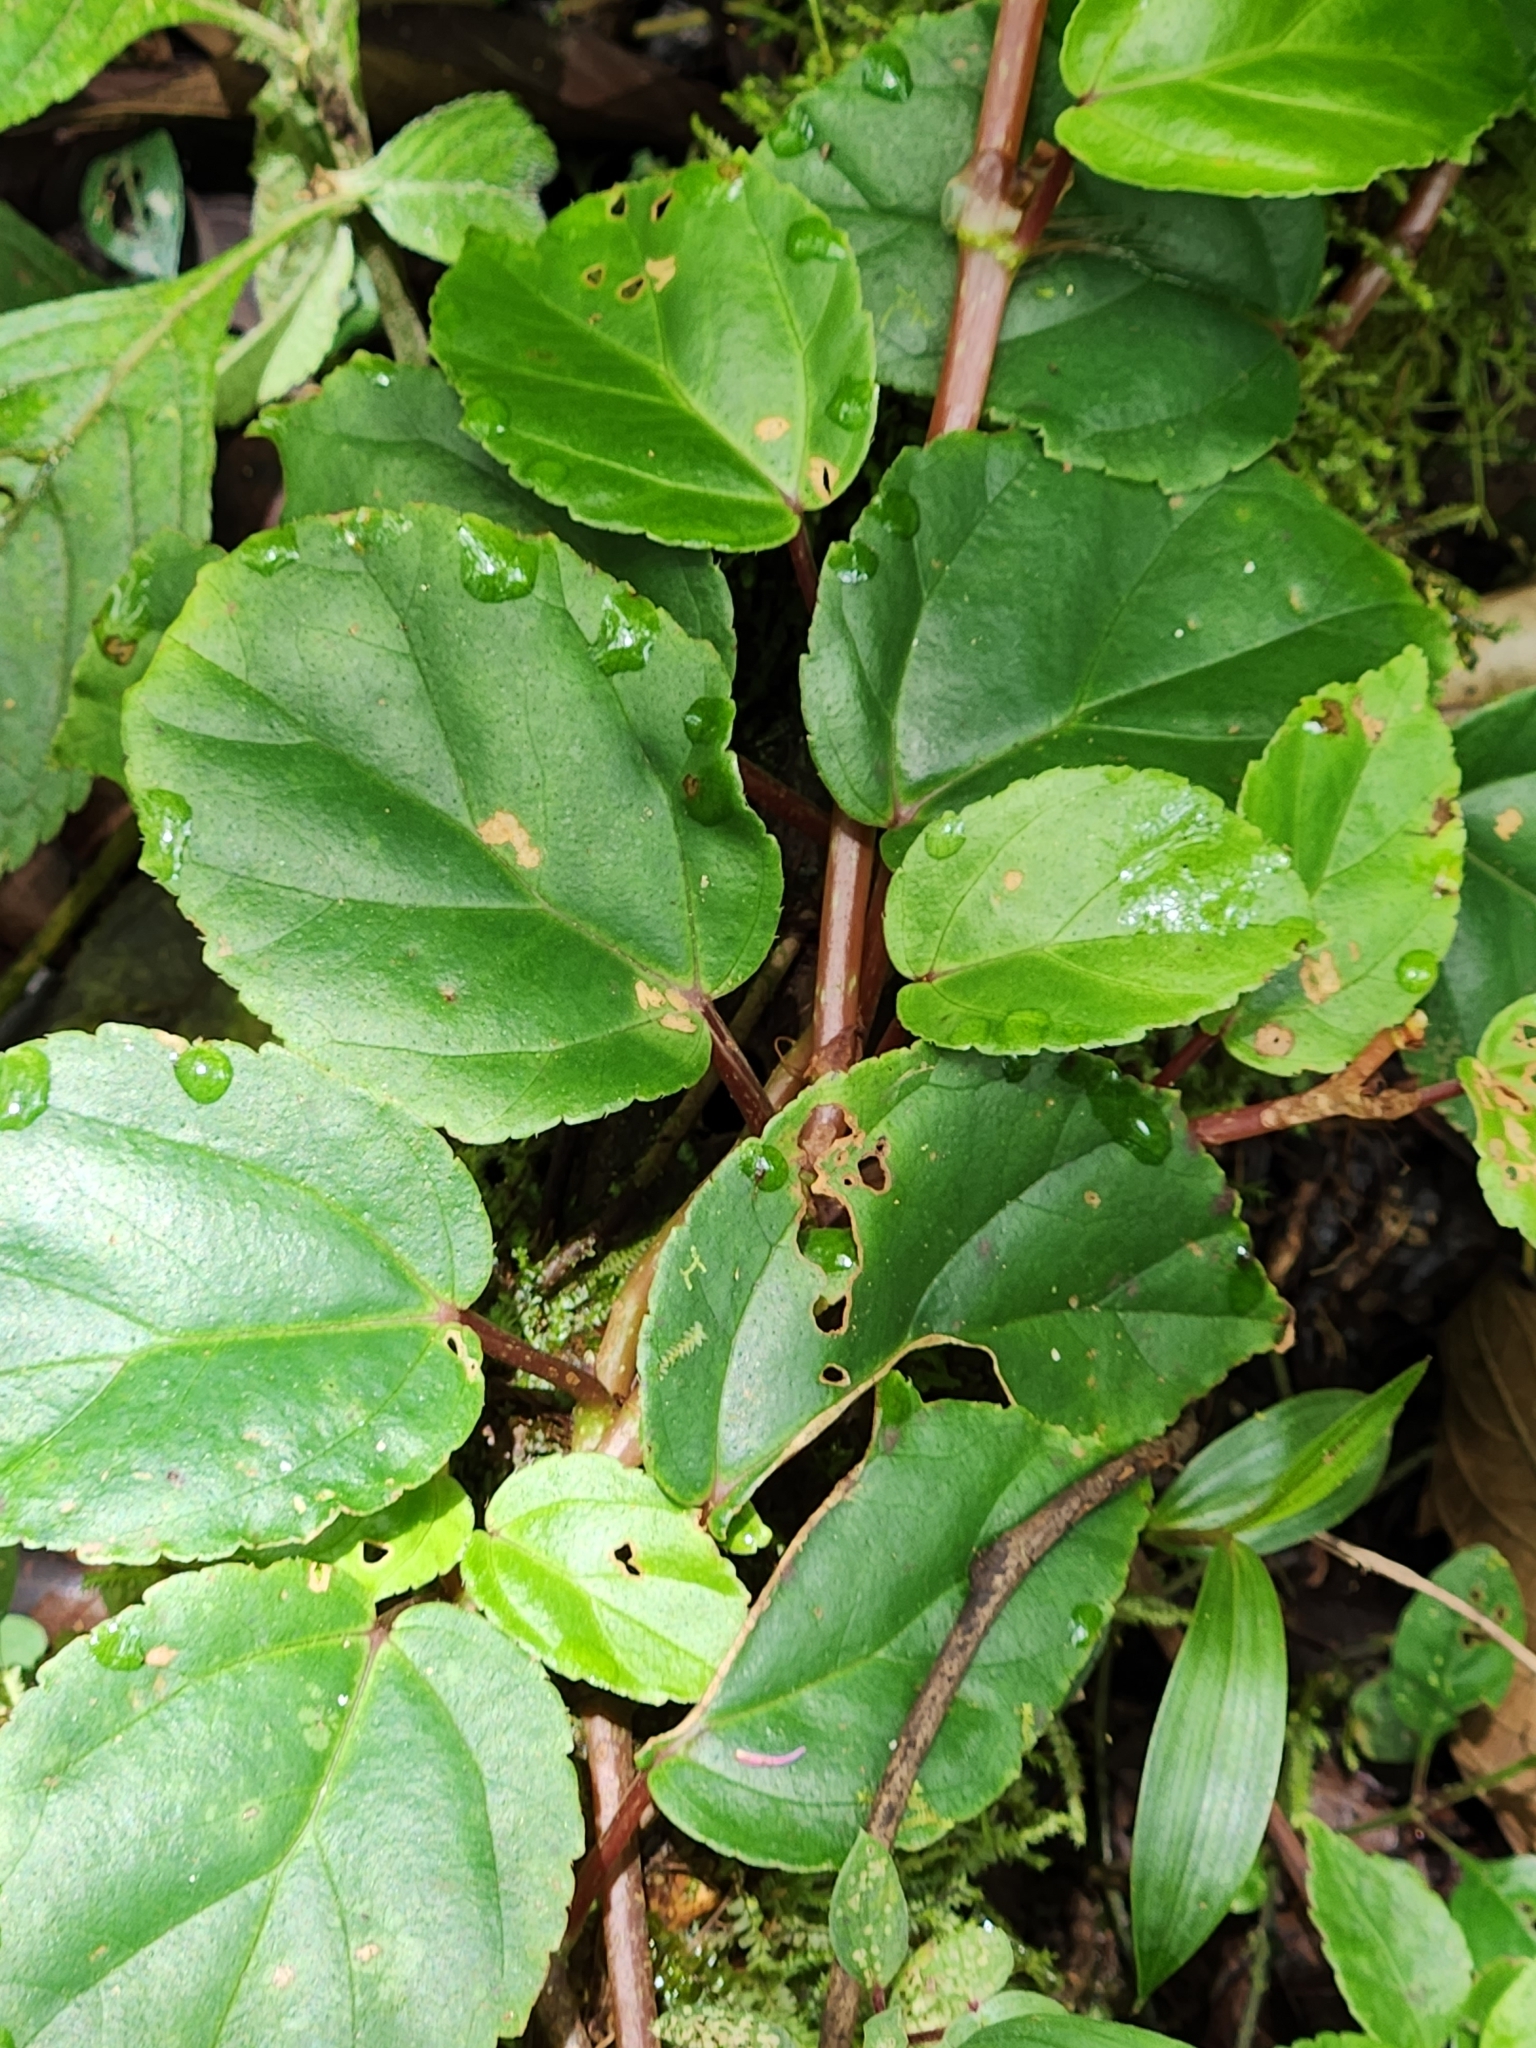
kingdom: Plantae
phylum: Tracheophyta
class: Magnoliopsida
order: Cucurbitales
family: Begoniaceae
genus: Begonia
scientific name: Begonia glabra
